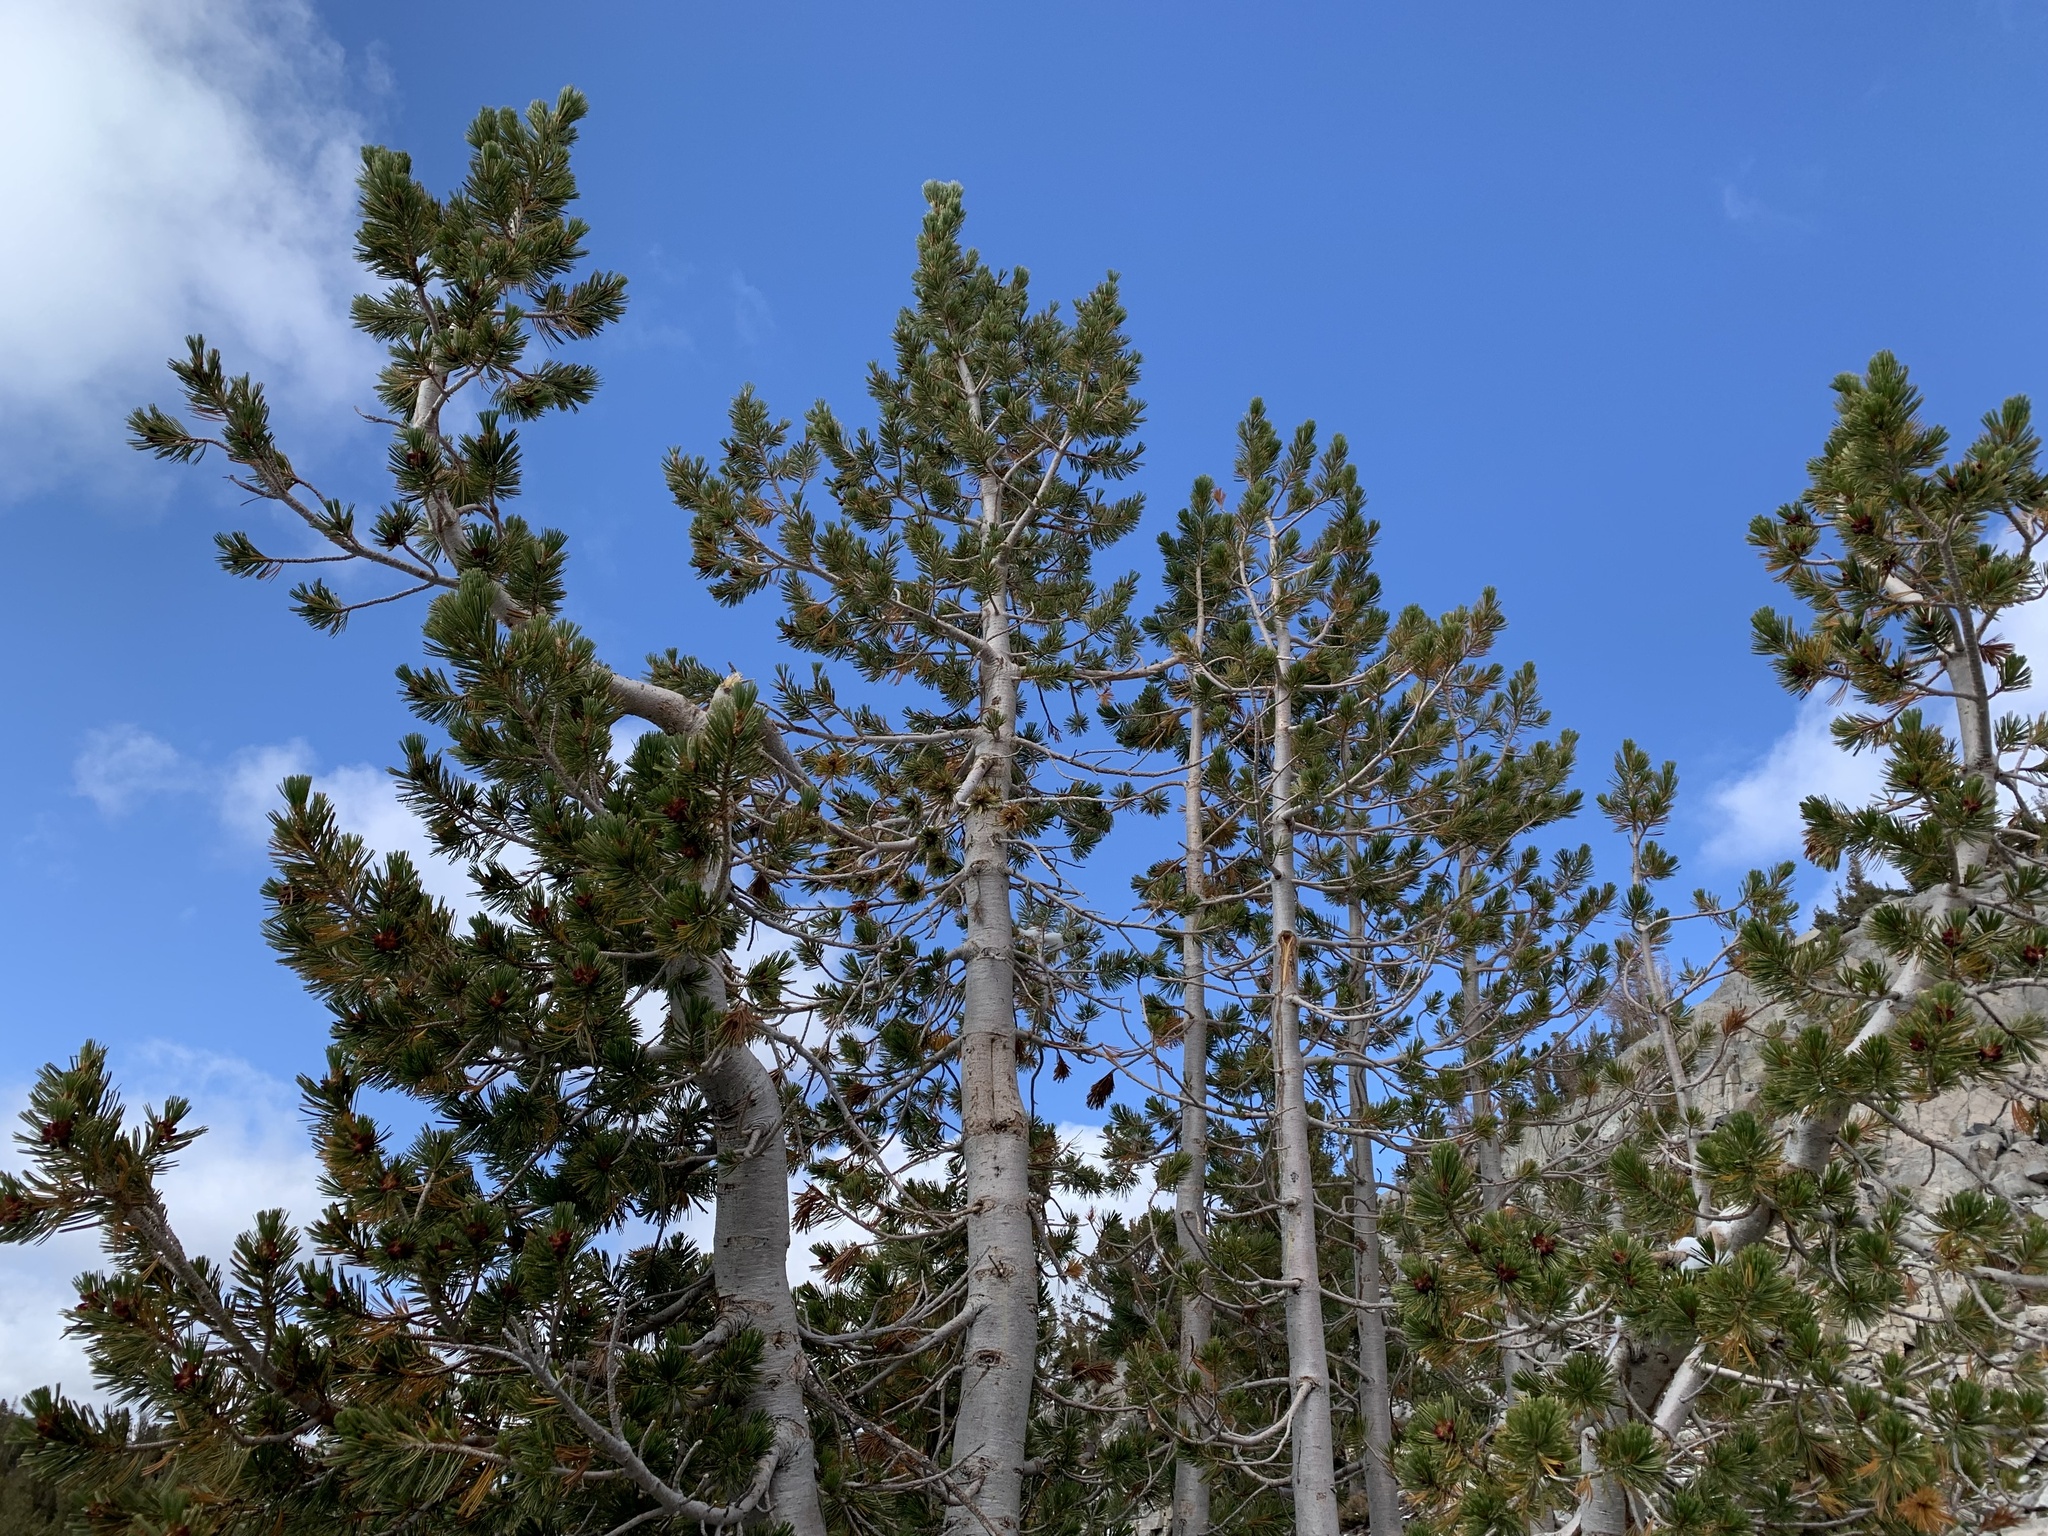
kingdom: Plantae
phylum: Tracheophyta
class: Pinopsida
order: Pinales
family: Pinaceae
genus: Pinus
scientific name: Pinus albicaulis
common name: Whitebark pine
